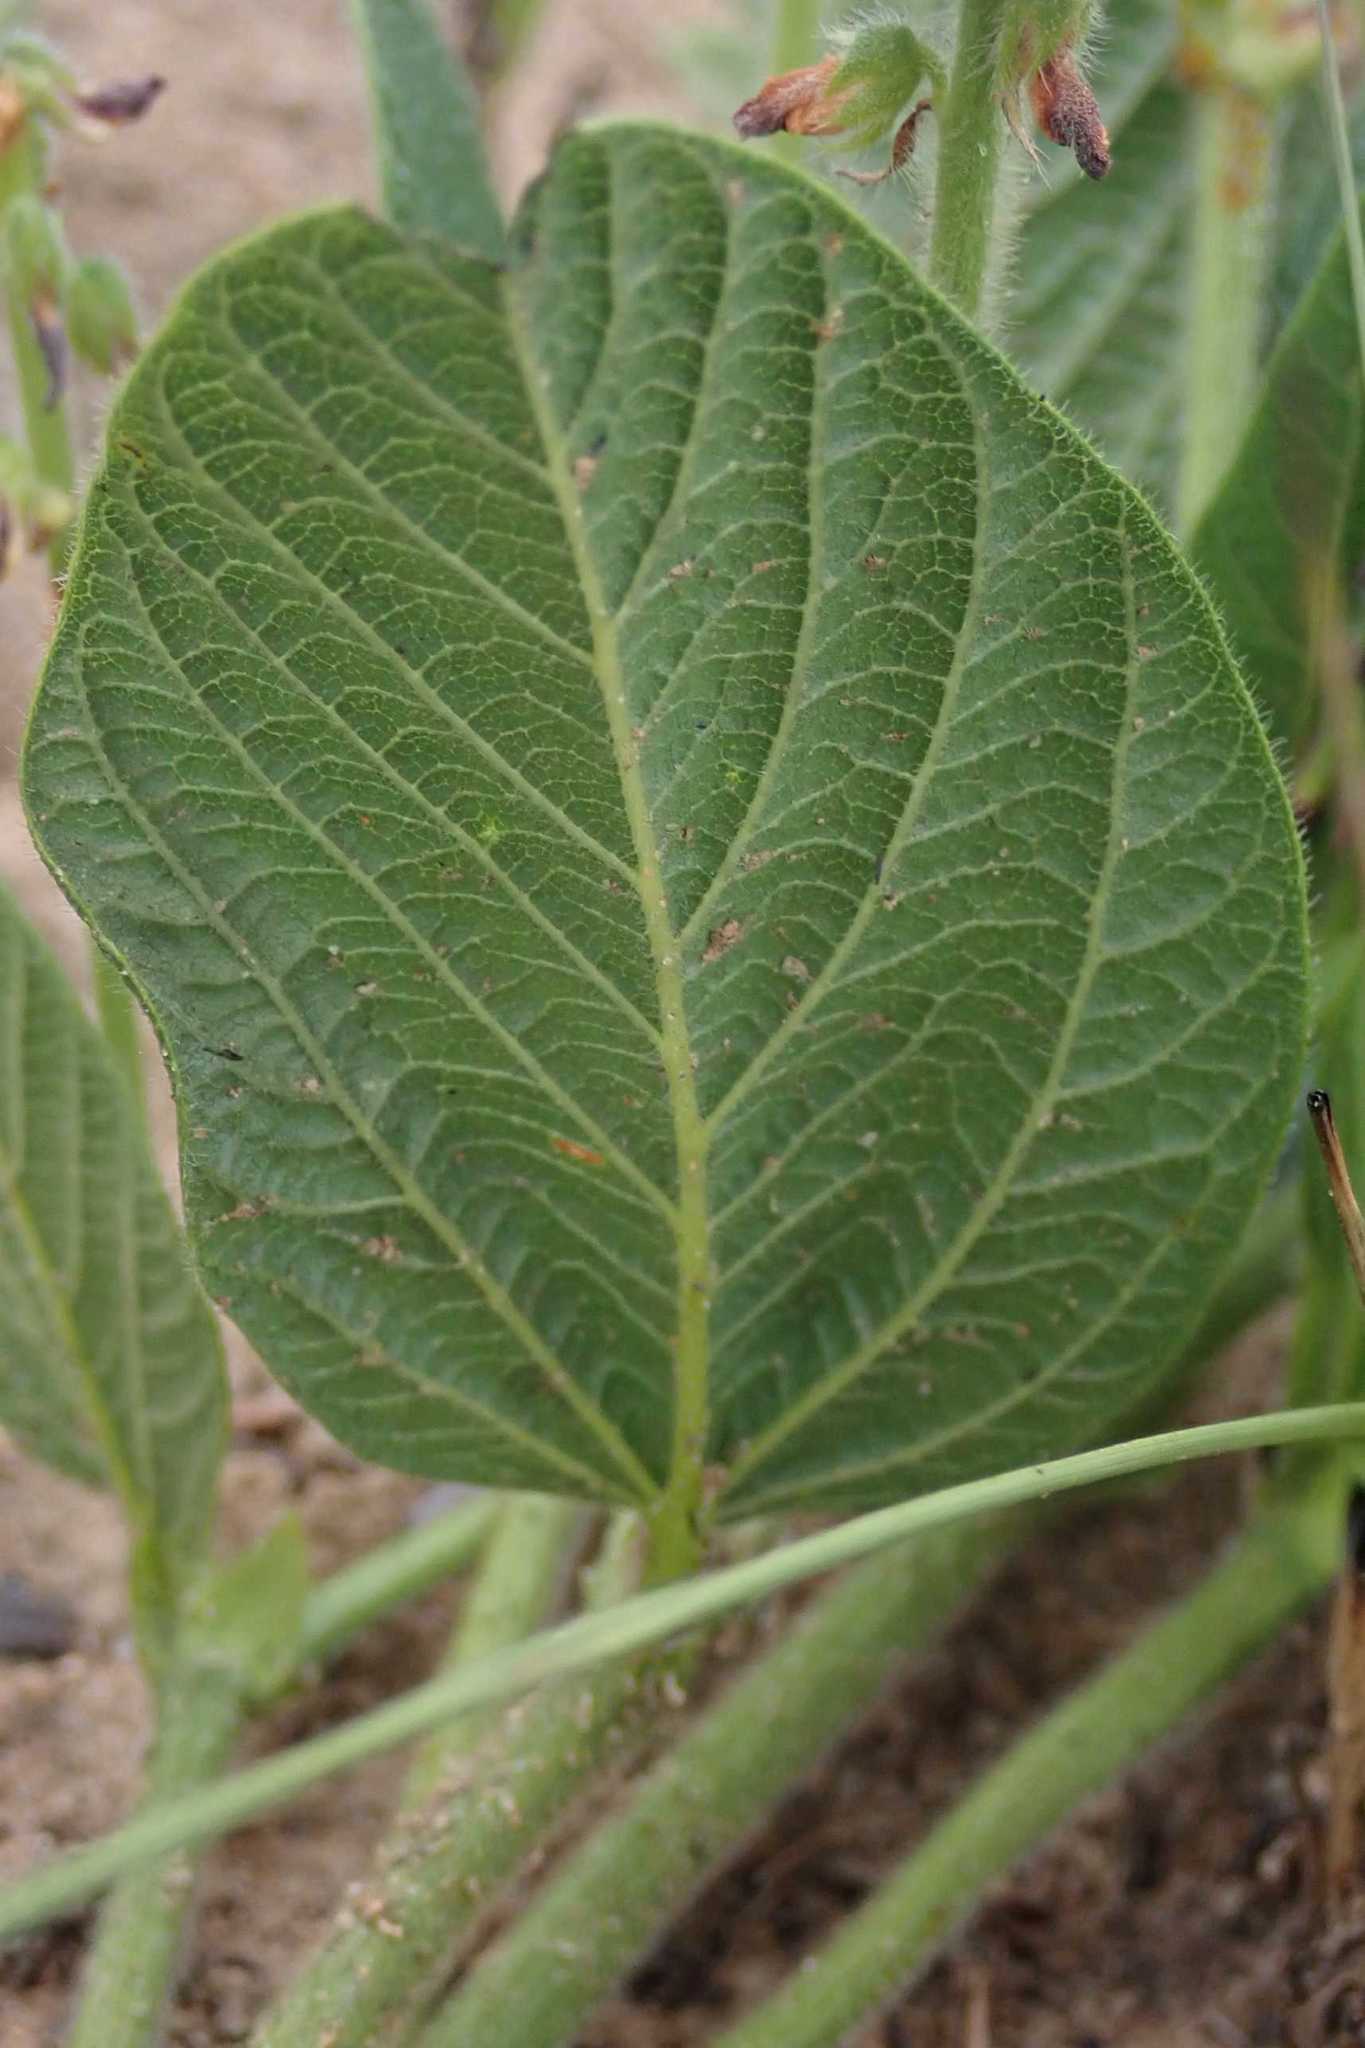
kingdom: Plantae
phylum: Tracheophyta
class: Magnoliopsida
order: Fabales
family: Fabaceae
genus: Eriosema
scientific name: Eriosema cordatum
